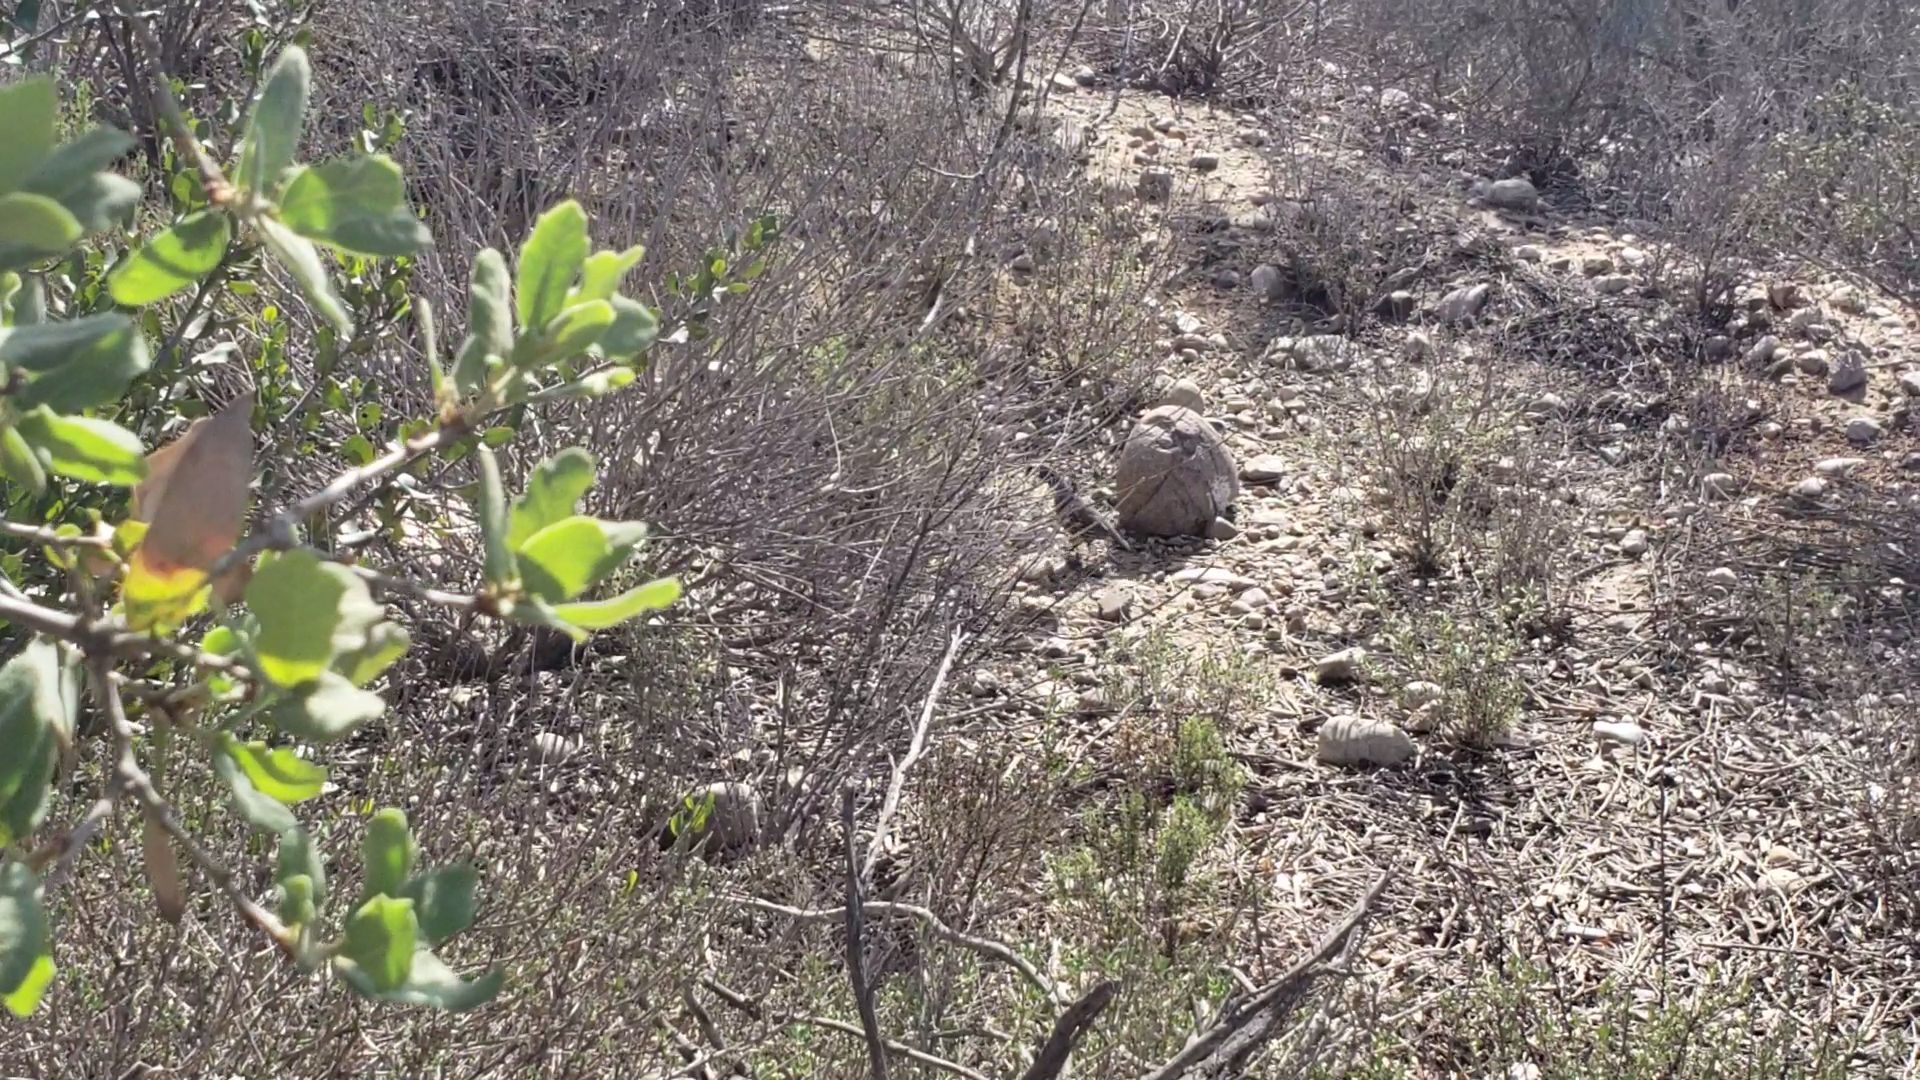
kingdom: Animalia
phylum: Chordata
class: Aves
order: Galliformes
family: Odontophoridae
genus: Callipepla
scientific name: Callipepla californica
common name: California quail
